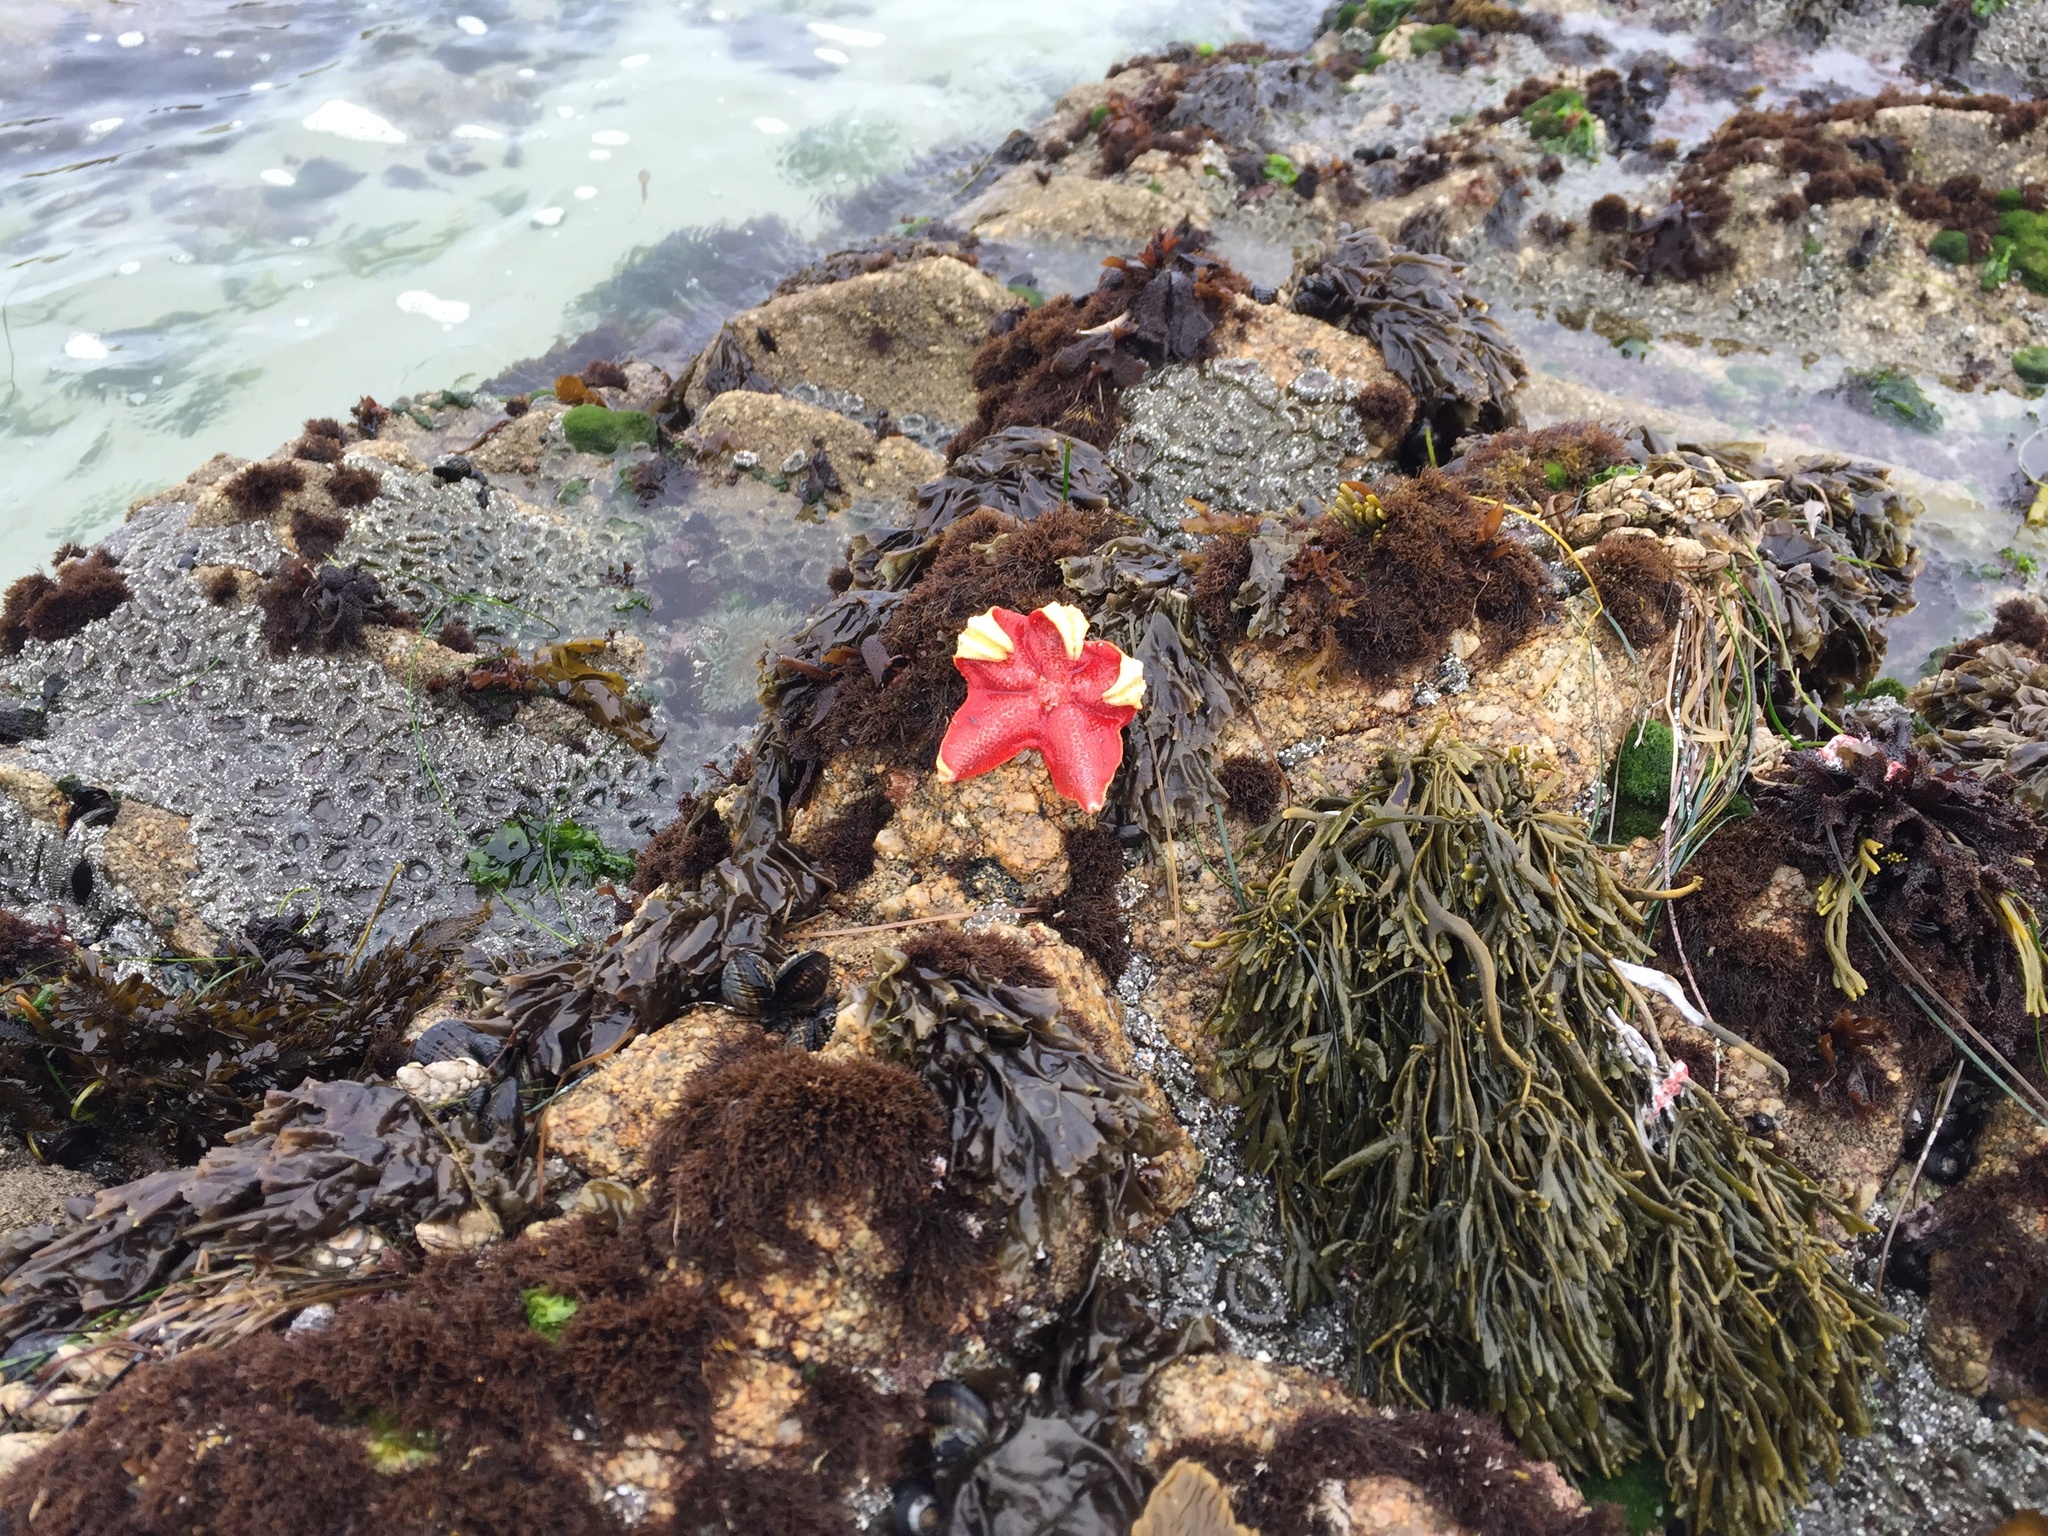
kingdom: Animalia
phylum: Echinodermata
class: Asteroidea
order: Valvatida
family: Asterinidae
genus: Patiria
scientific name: Patiria miniata
